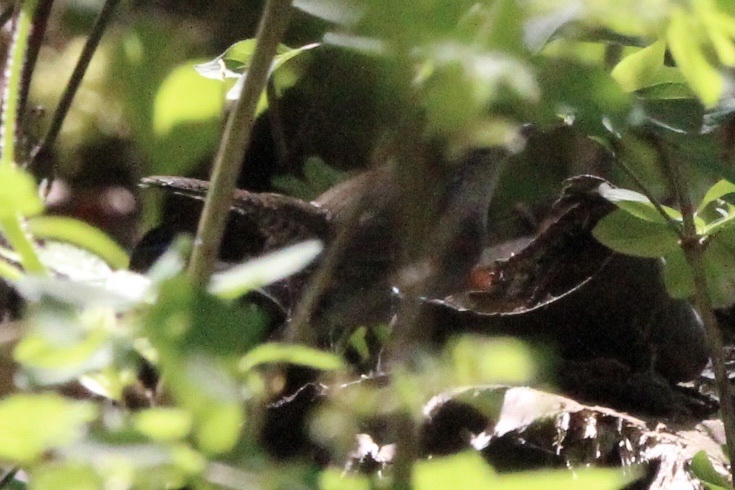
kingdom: Animalia
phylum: Chordata
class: Aves
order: Passeriformes
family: Troglodytidae
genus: Thryomanes
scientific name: Thryomanes bewickii
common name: Bewick's wren
